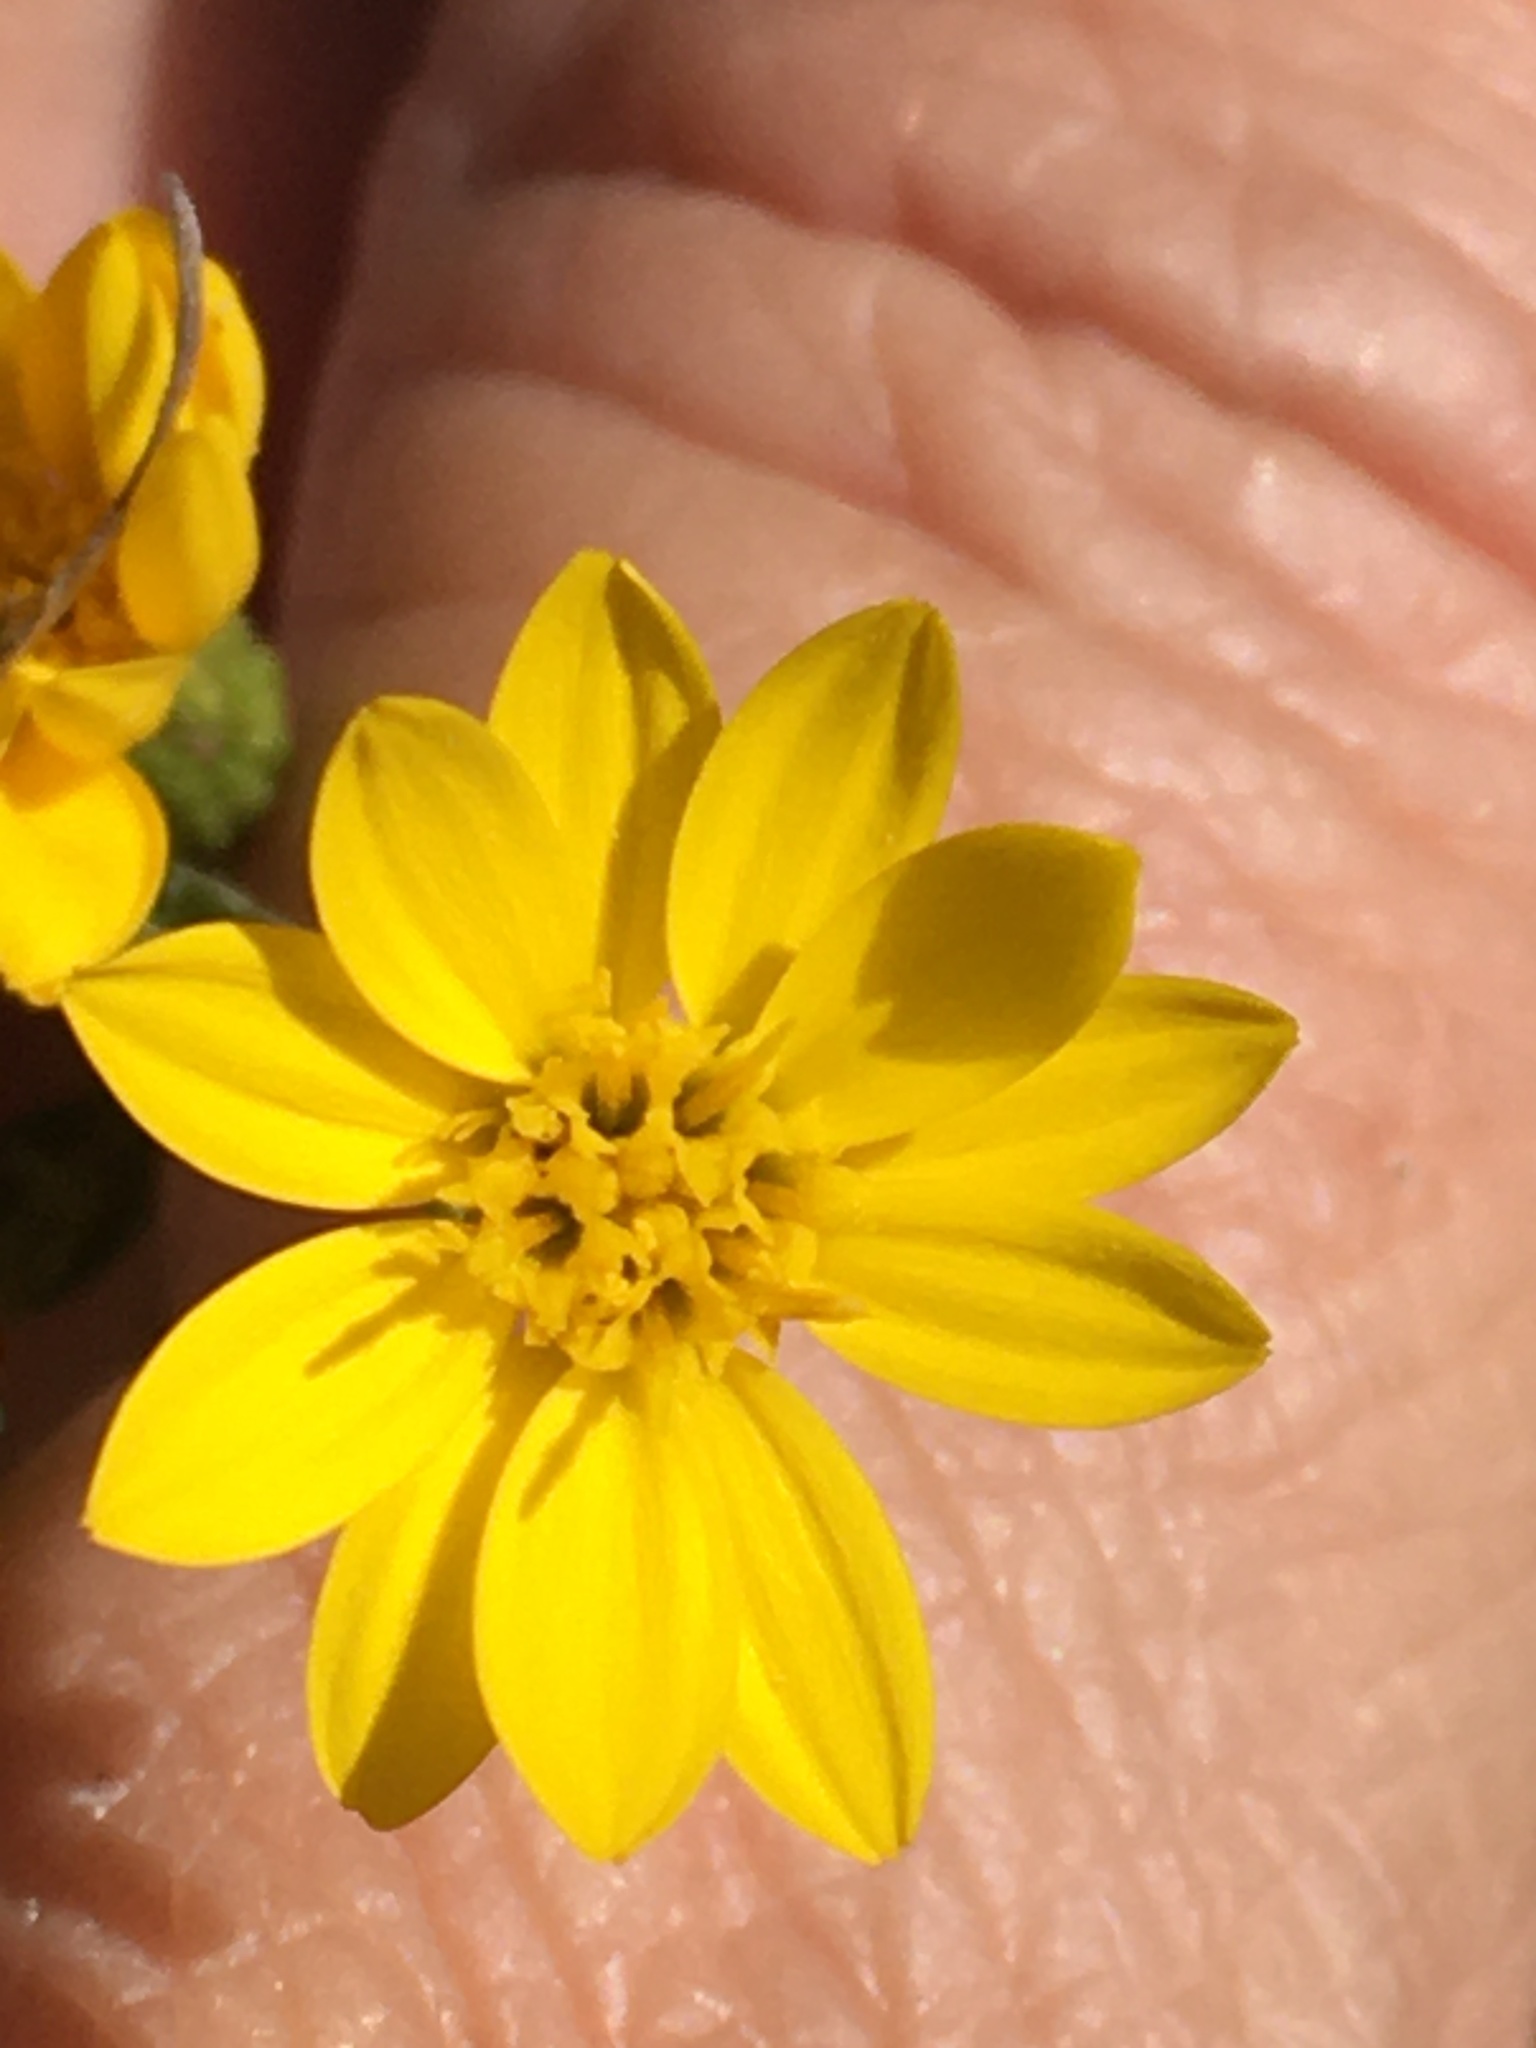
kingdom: Plantae
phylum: Tracheophyta
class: Magnoliopsida
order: Asterales
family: Asteraceae
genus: Pityopsis
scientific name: Pityopsis aspera
